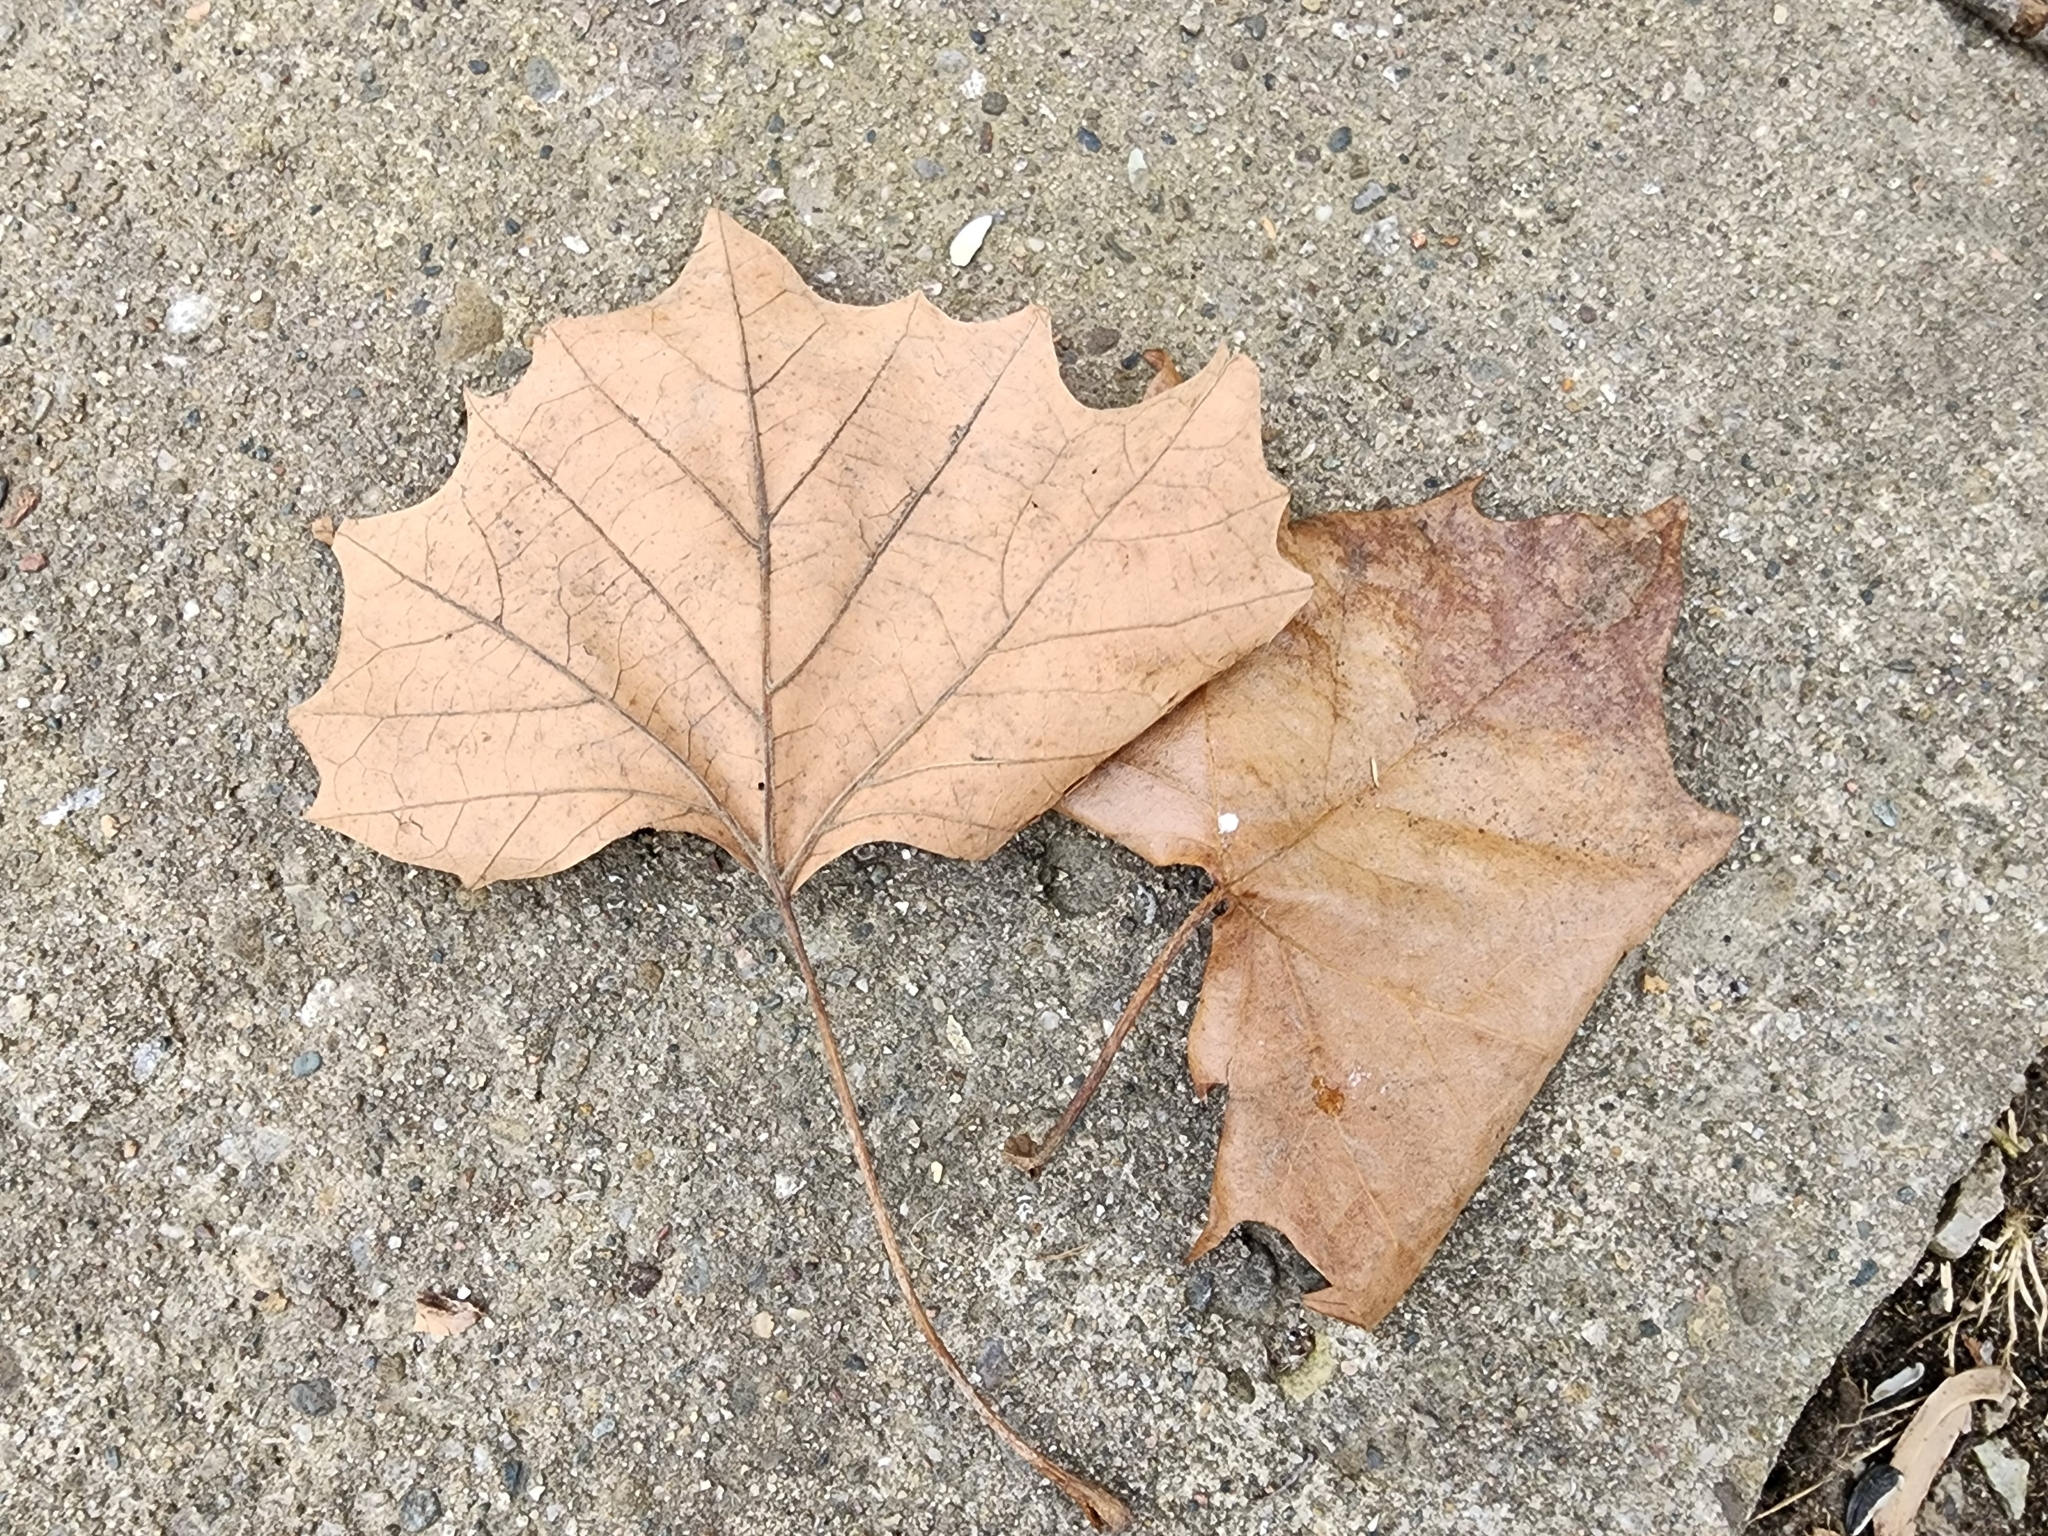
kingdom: Plantae
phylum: Tracheophyta
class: Magnoliopsida
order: Proteales
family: Platanaceae
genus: Platanus
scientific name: Platanus occidentalis
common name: American sycamore
